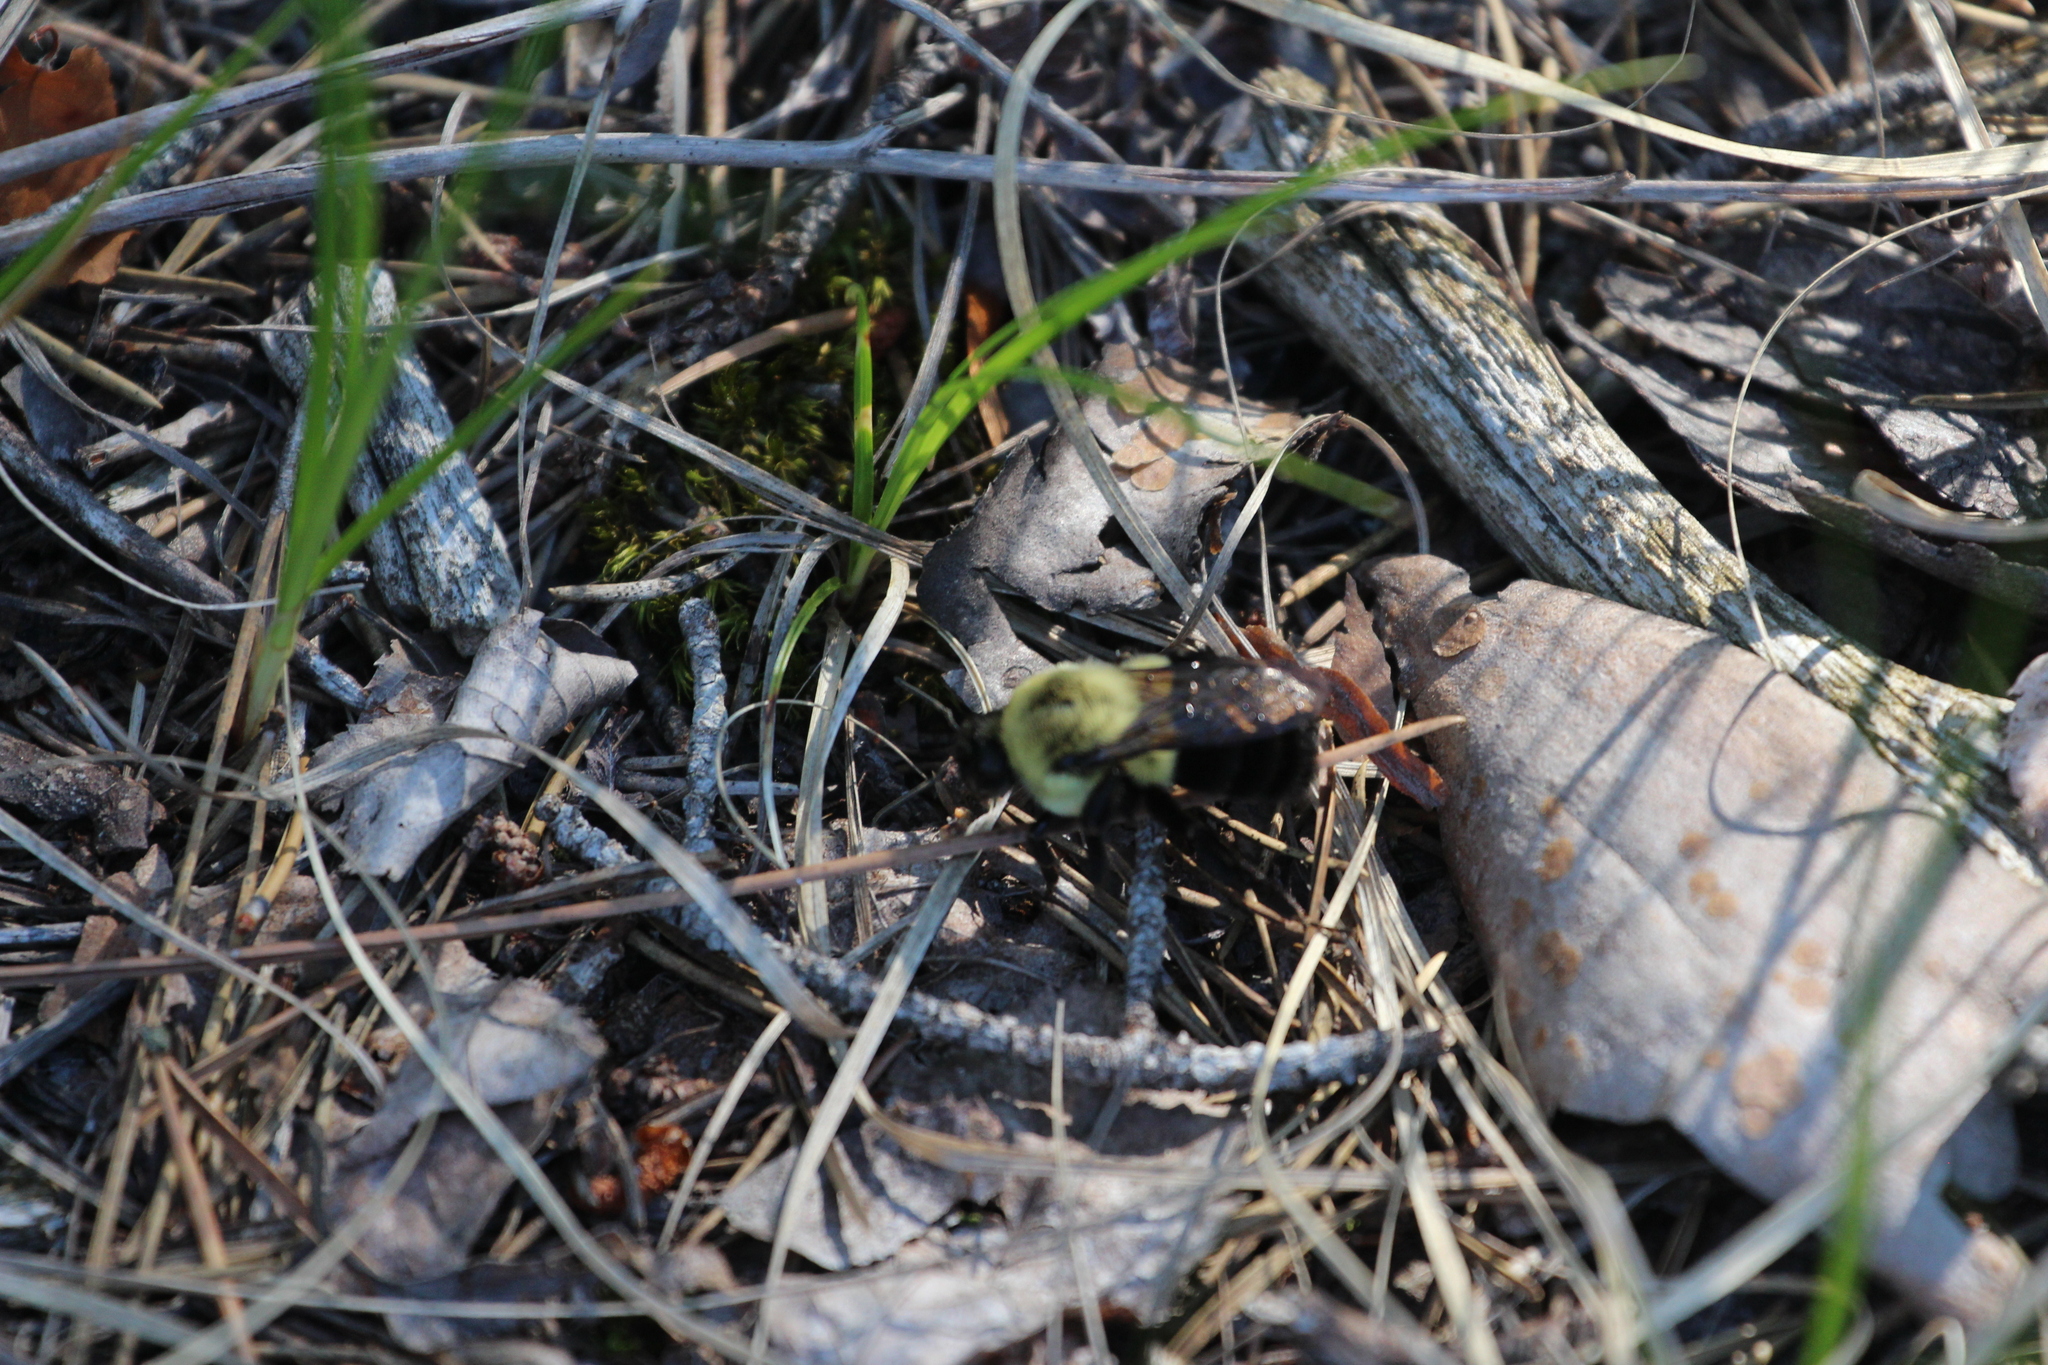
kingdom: Animalia
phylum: Arthropoda
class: Insecta
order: Hymenoptera
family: Apidae
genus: Bombus
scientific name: Bombus impatiens
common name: Common eastern bumble bee
